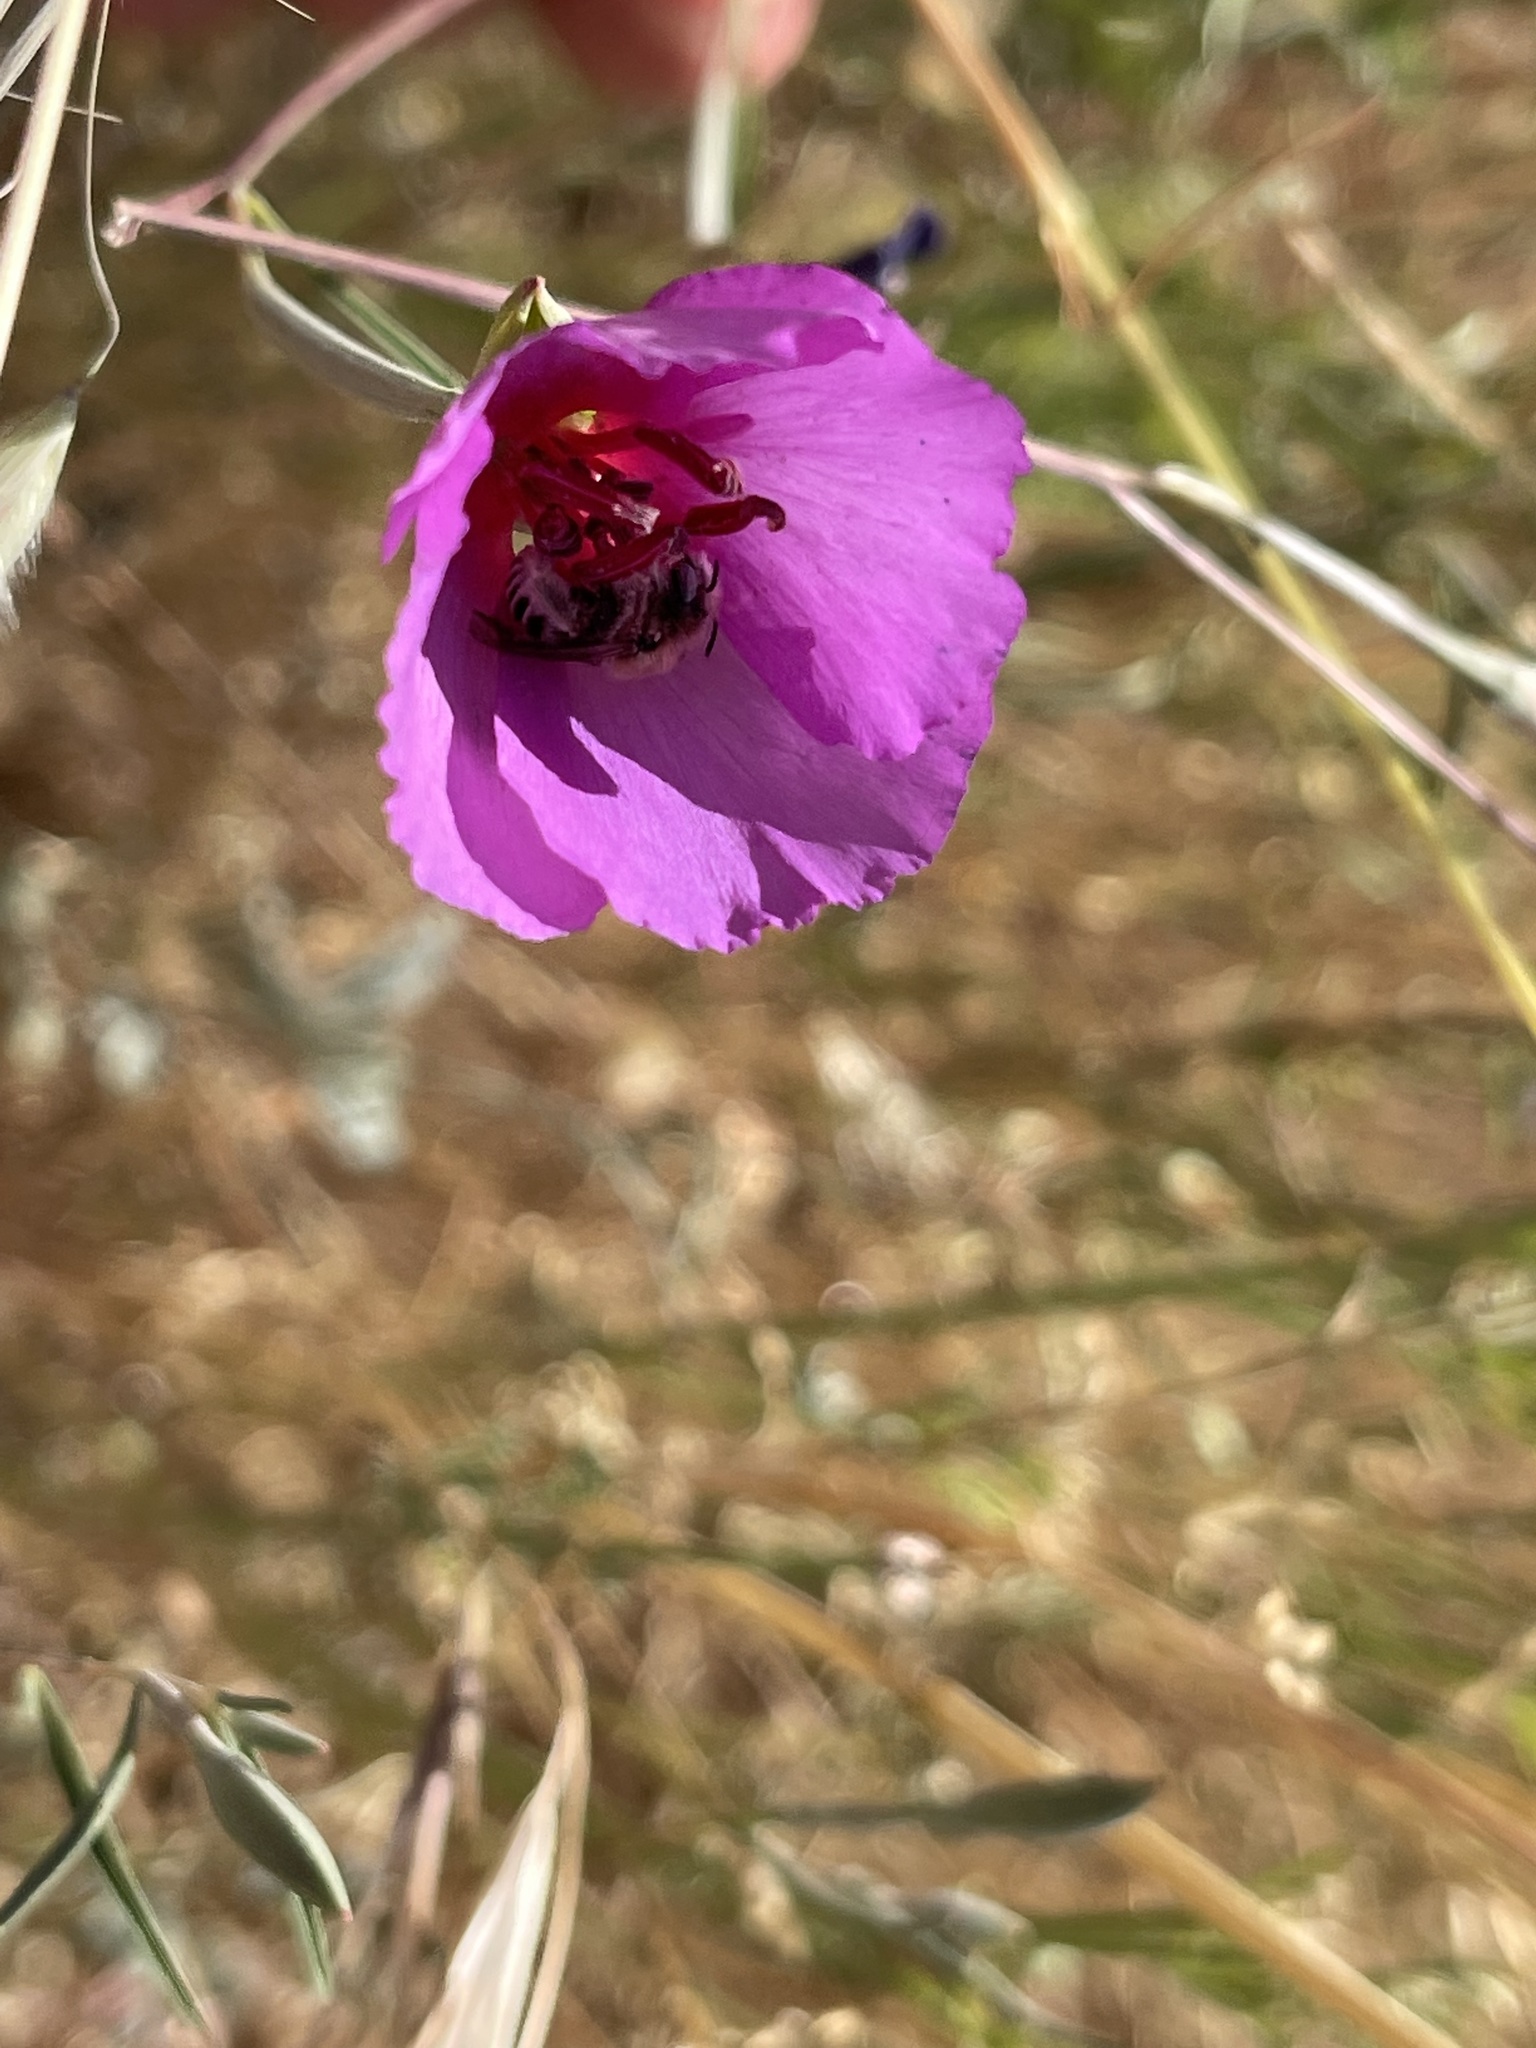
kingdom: Plantae
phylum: Tracheophyta
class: Magnoliopsida
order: Myrtales
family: Onagraceae
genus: Clarkia
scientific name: Clarkia rubicunda
